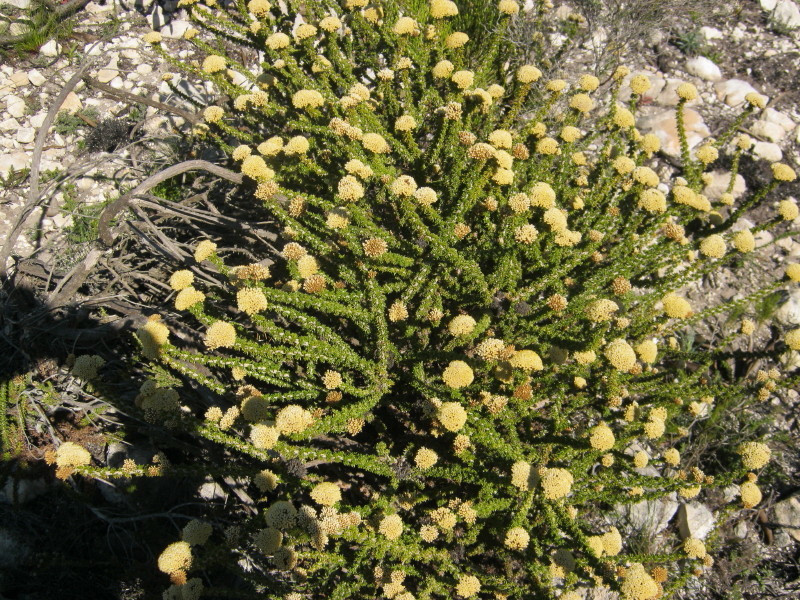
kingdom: Plantae
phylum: Tracheophyta
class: Magnoliopsida
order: Asterales
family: Asteraceae
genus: Metalasia
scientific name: Metalasia luteola
